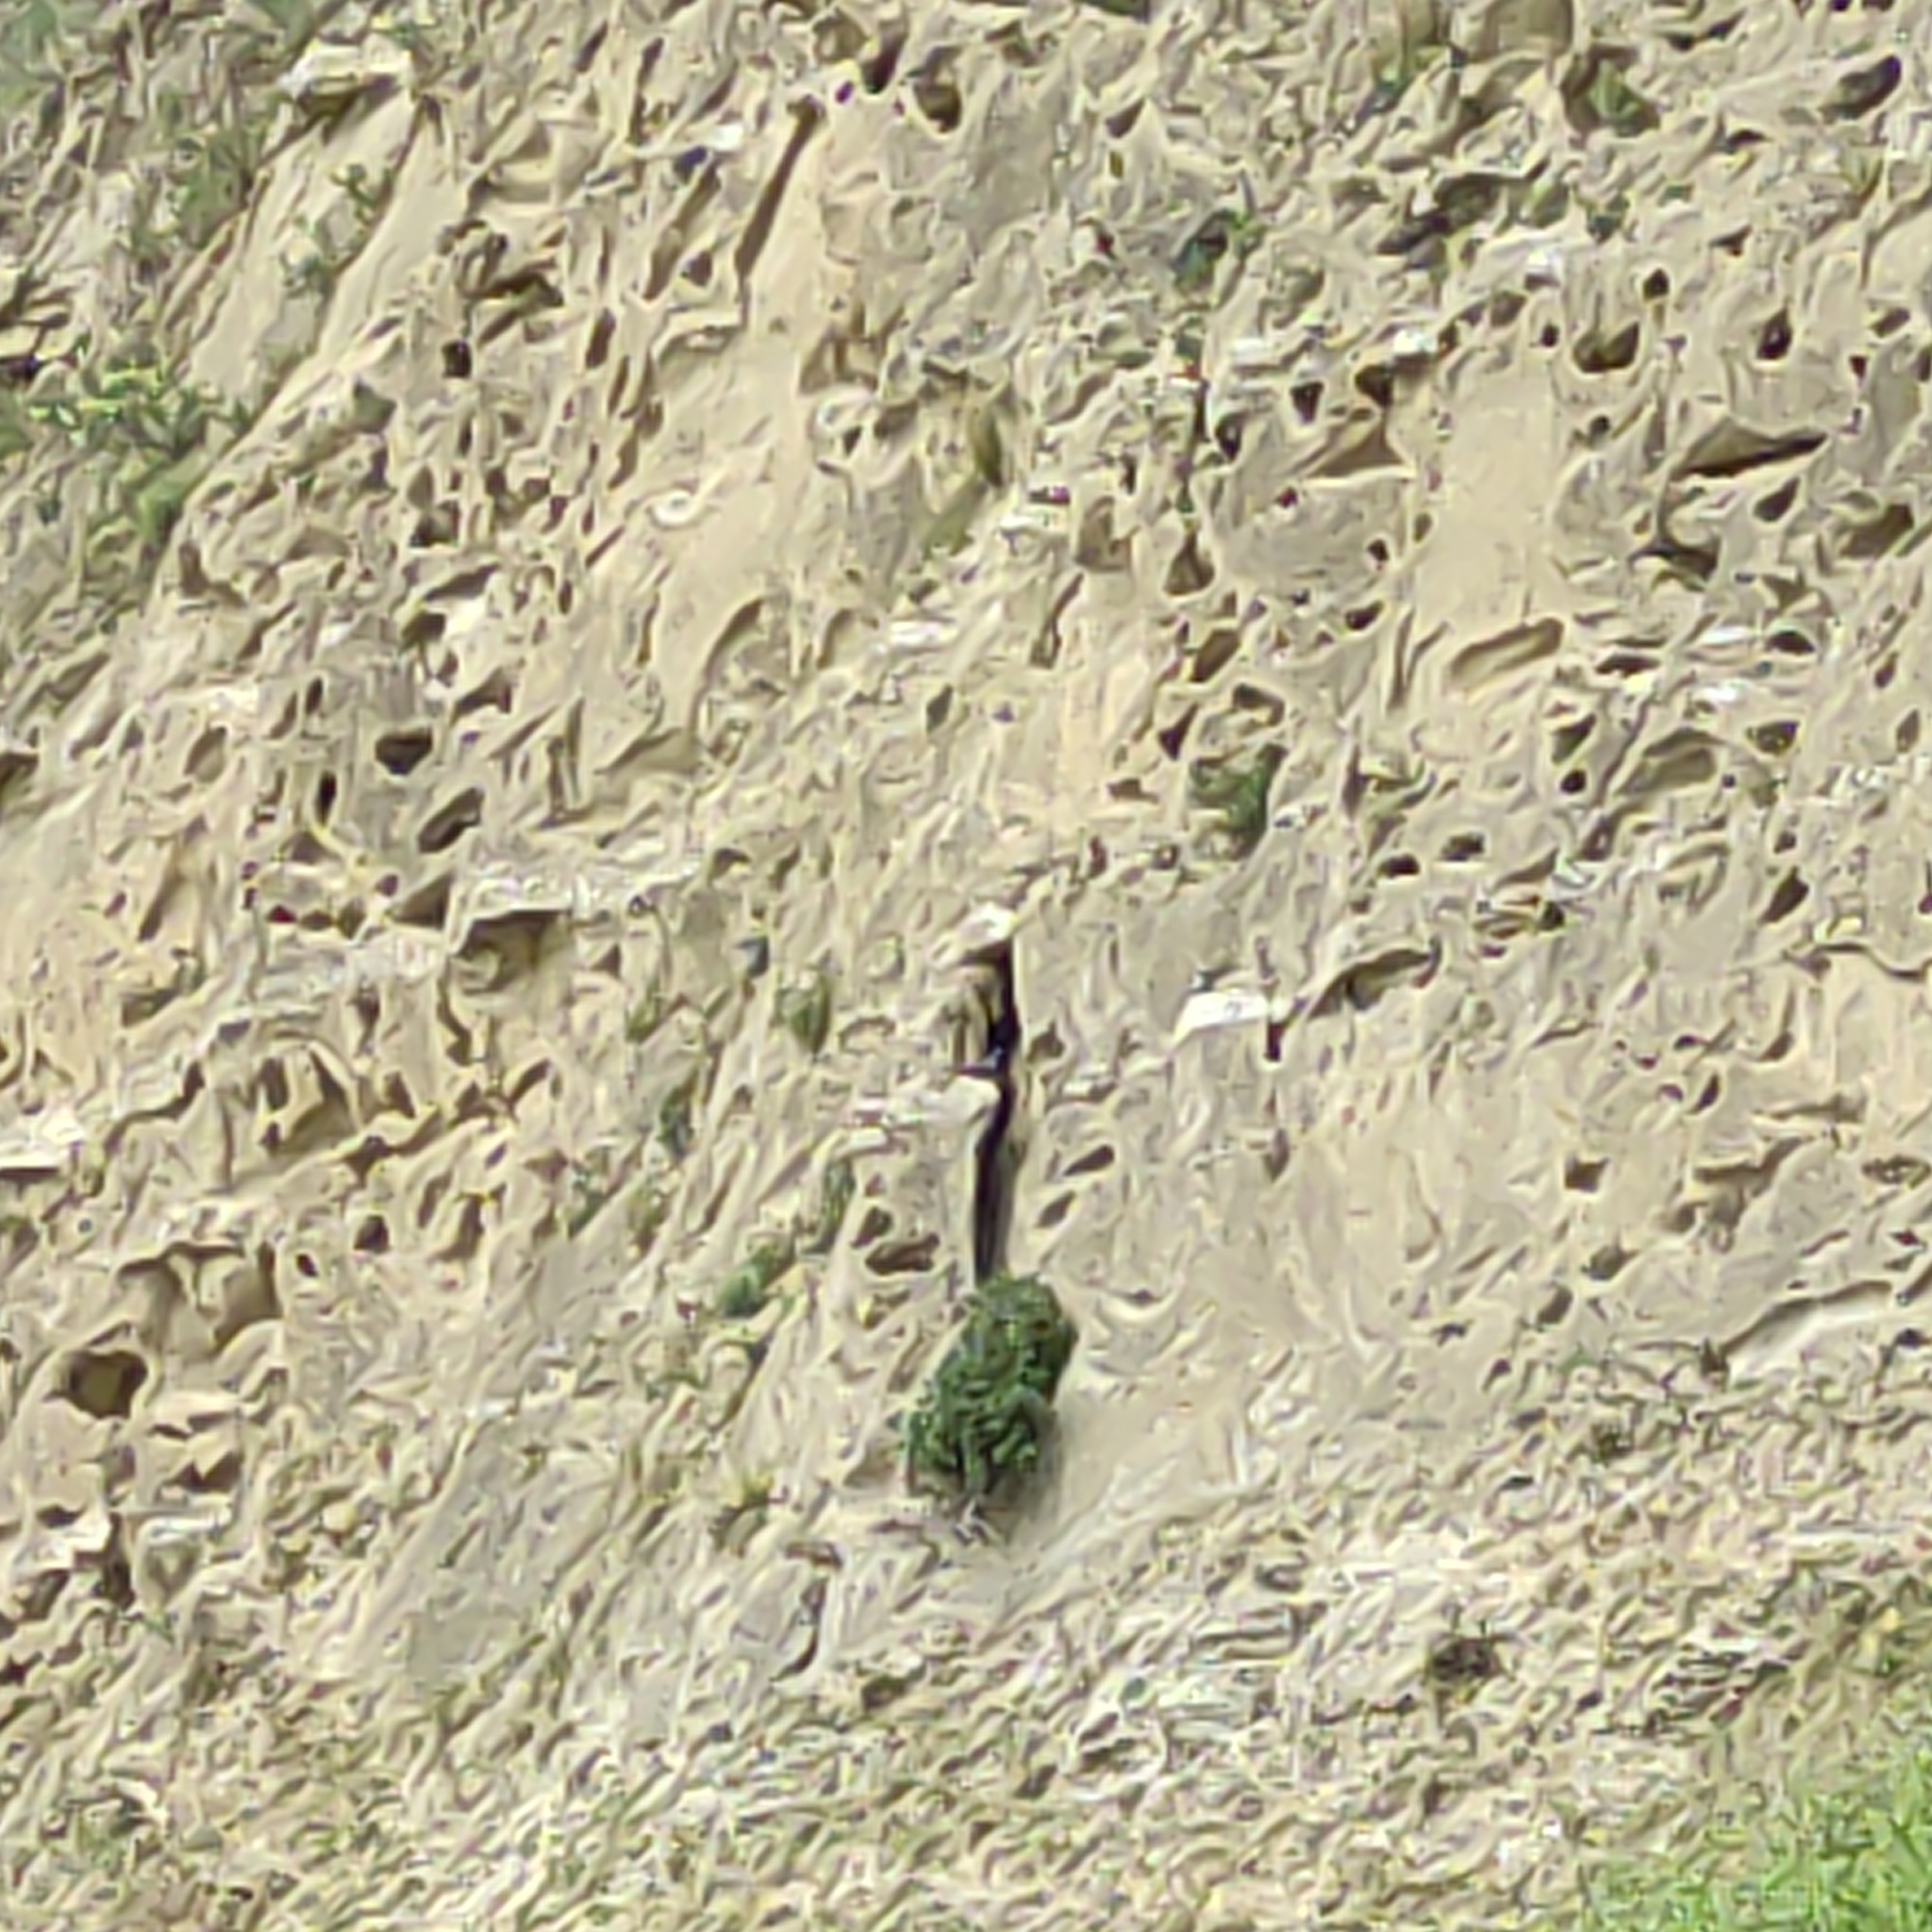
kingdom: Animalia
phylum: Chordata
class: Aves
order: Columbiformes
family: Columbidae
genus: Columba
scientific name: Columba livia
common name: Rock pigeon
